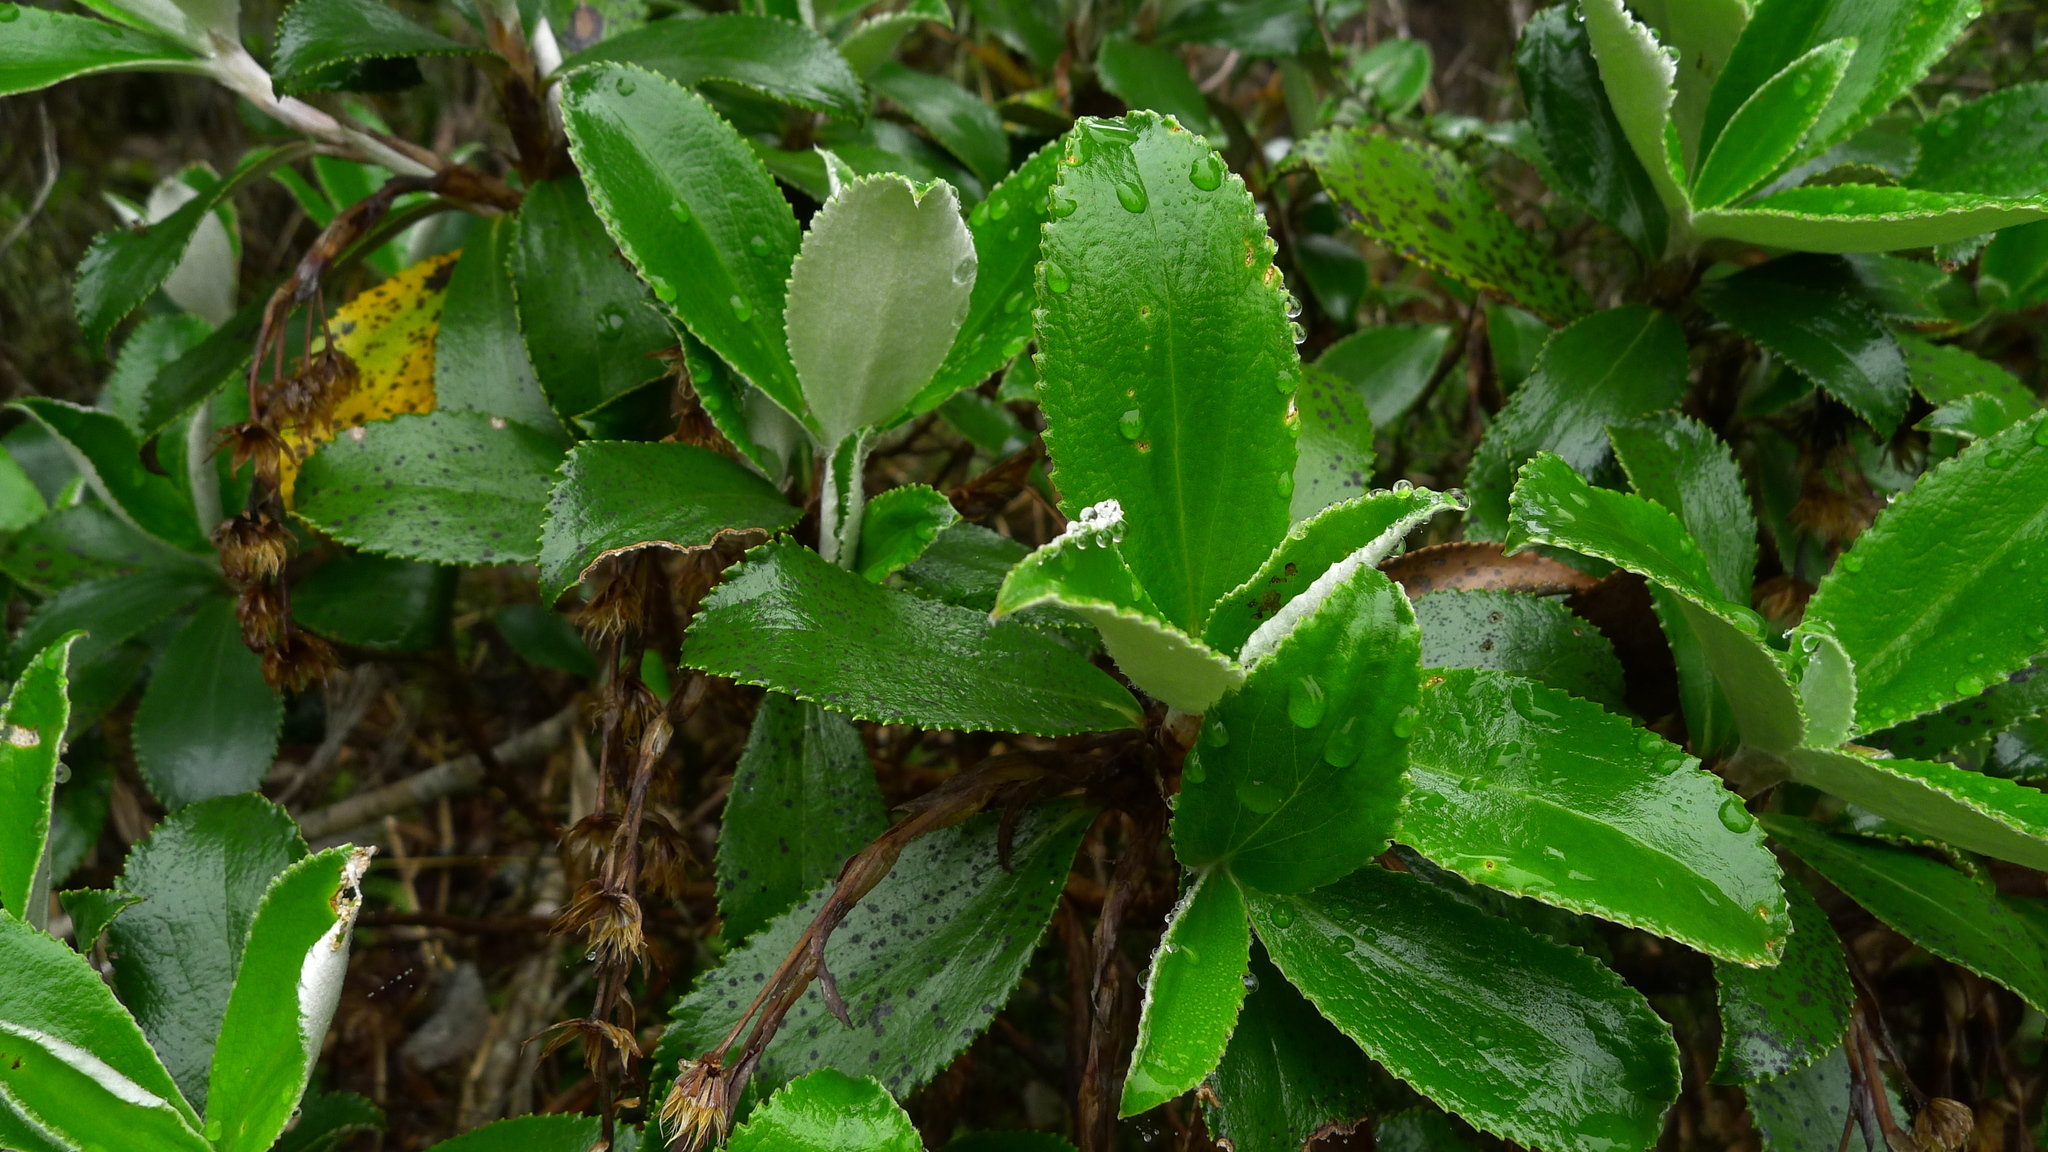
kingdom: Plantae
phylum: Tracheophyta
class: Magnoliopsida
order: Asterales
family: Asteraceae
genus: Macrolearia
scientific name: Macrolearia colensoi
